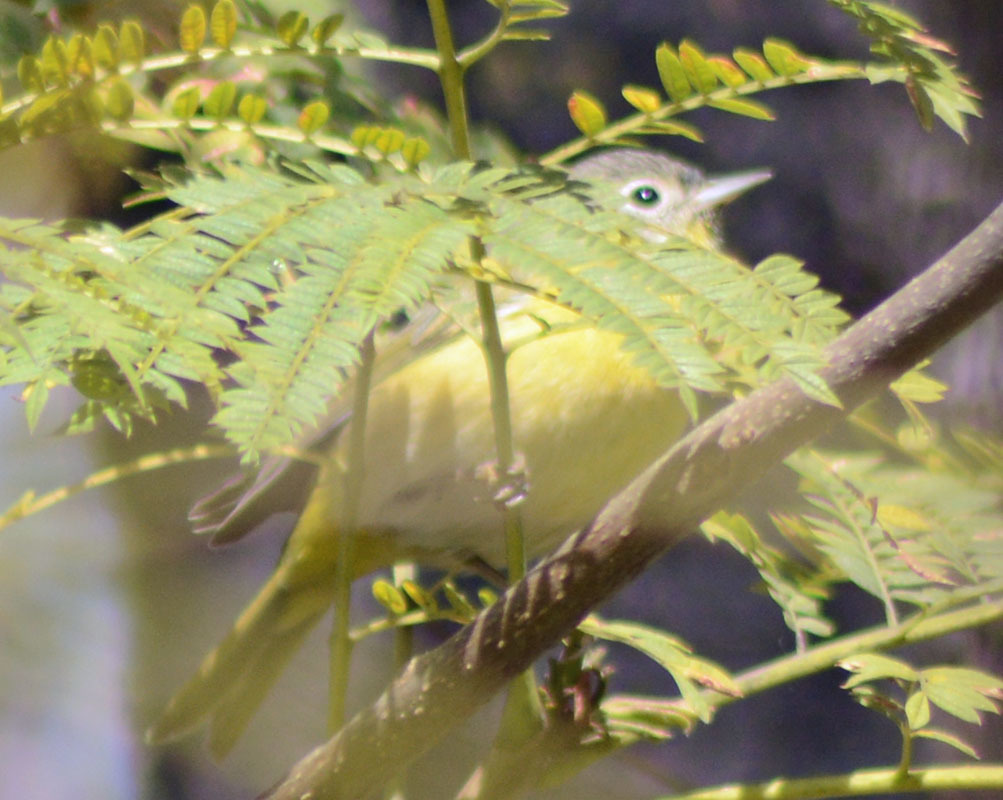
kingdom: Animalia
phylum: Chordata
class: Aves
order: Passeriformes
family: Parulidae
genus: Leiothlypis
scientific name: Leiothlypis ruficapilla
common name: Nashville warbler
